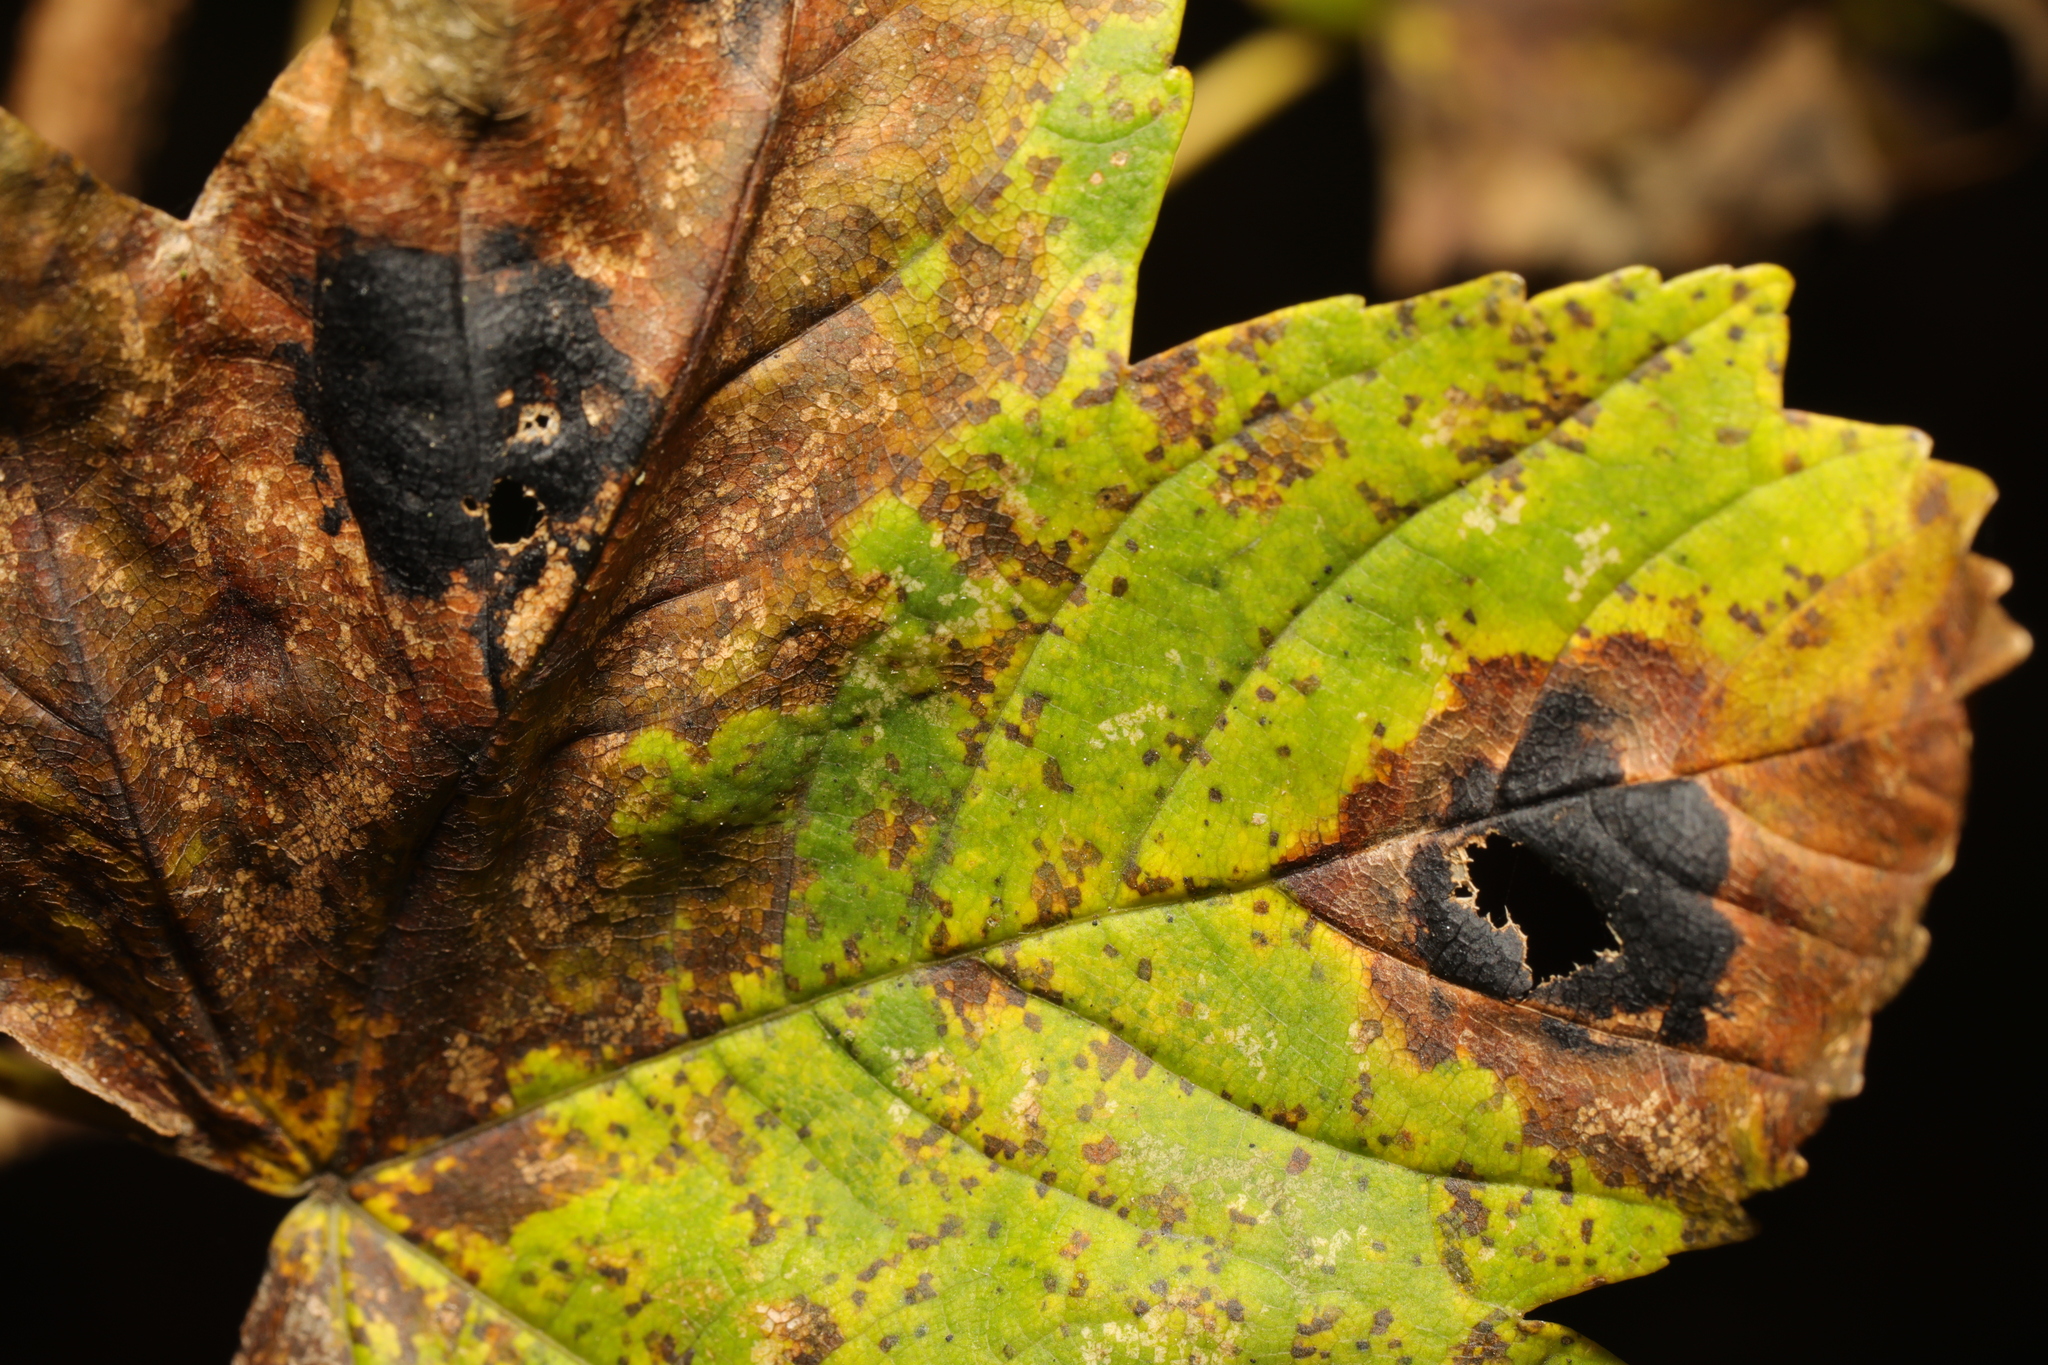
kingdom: Fungi
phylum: Ascomycota
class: Leotiomycetes
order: Rhytismatales
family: Rhytismataceae
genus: Rhytisma
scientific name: Rhytisma acerinum
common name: European tar spot
